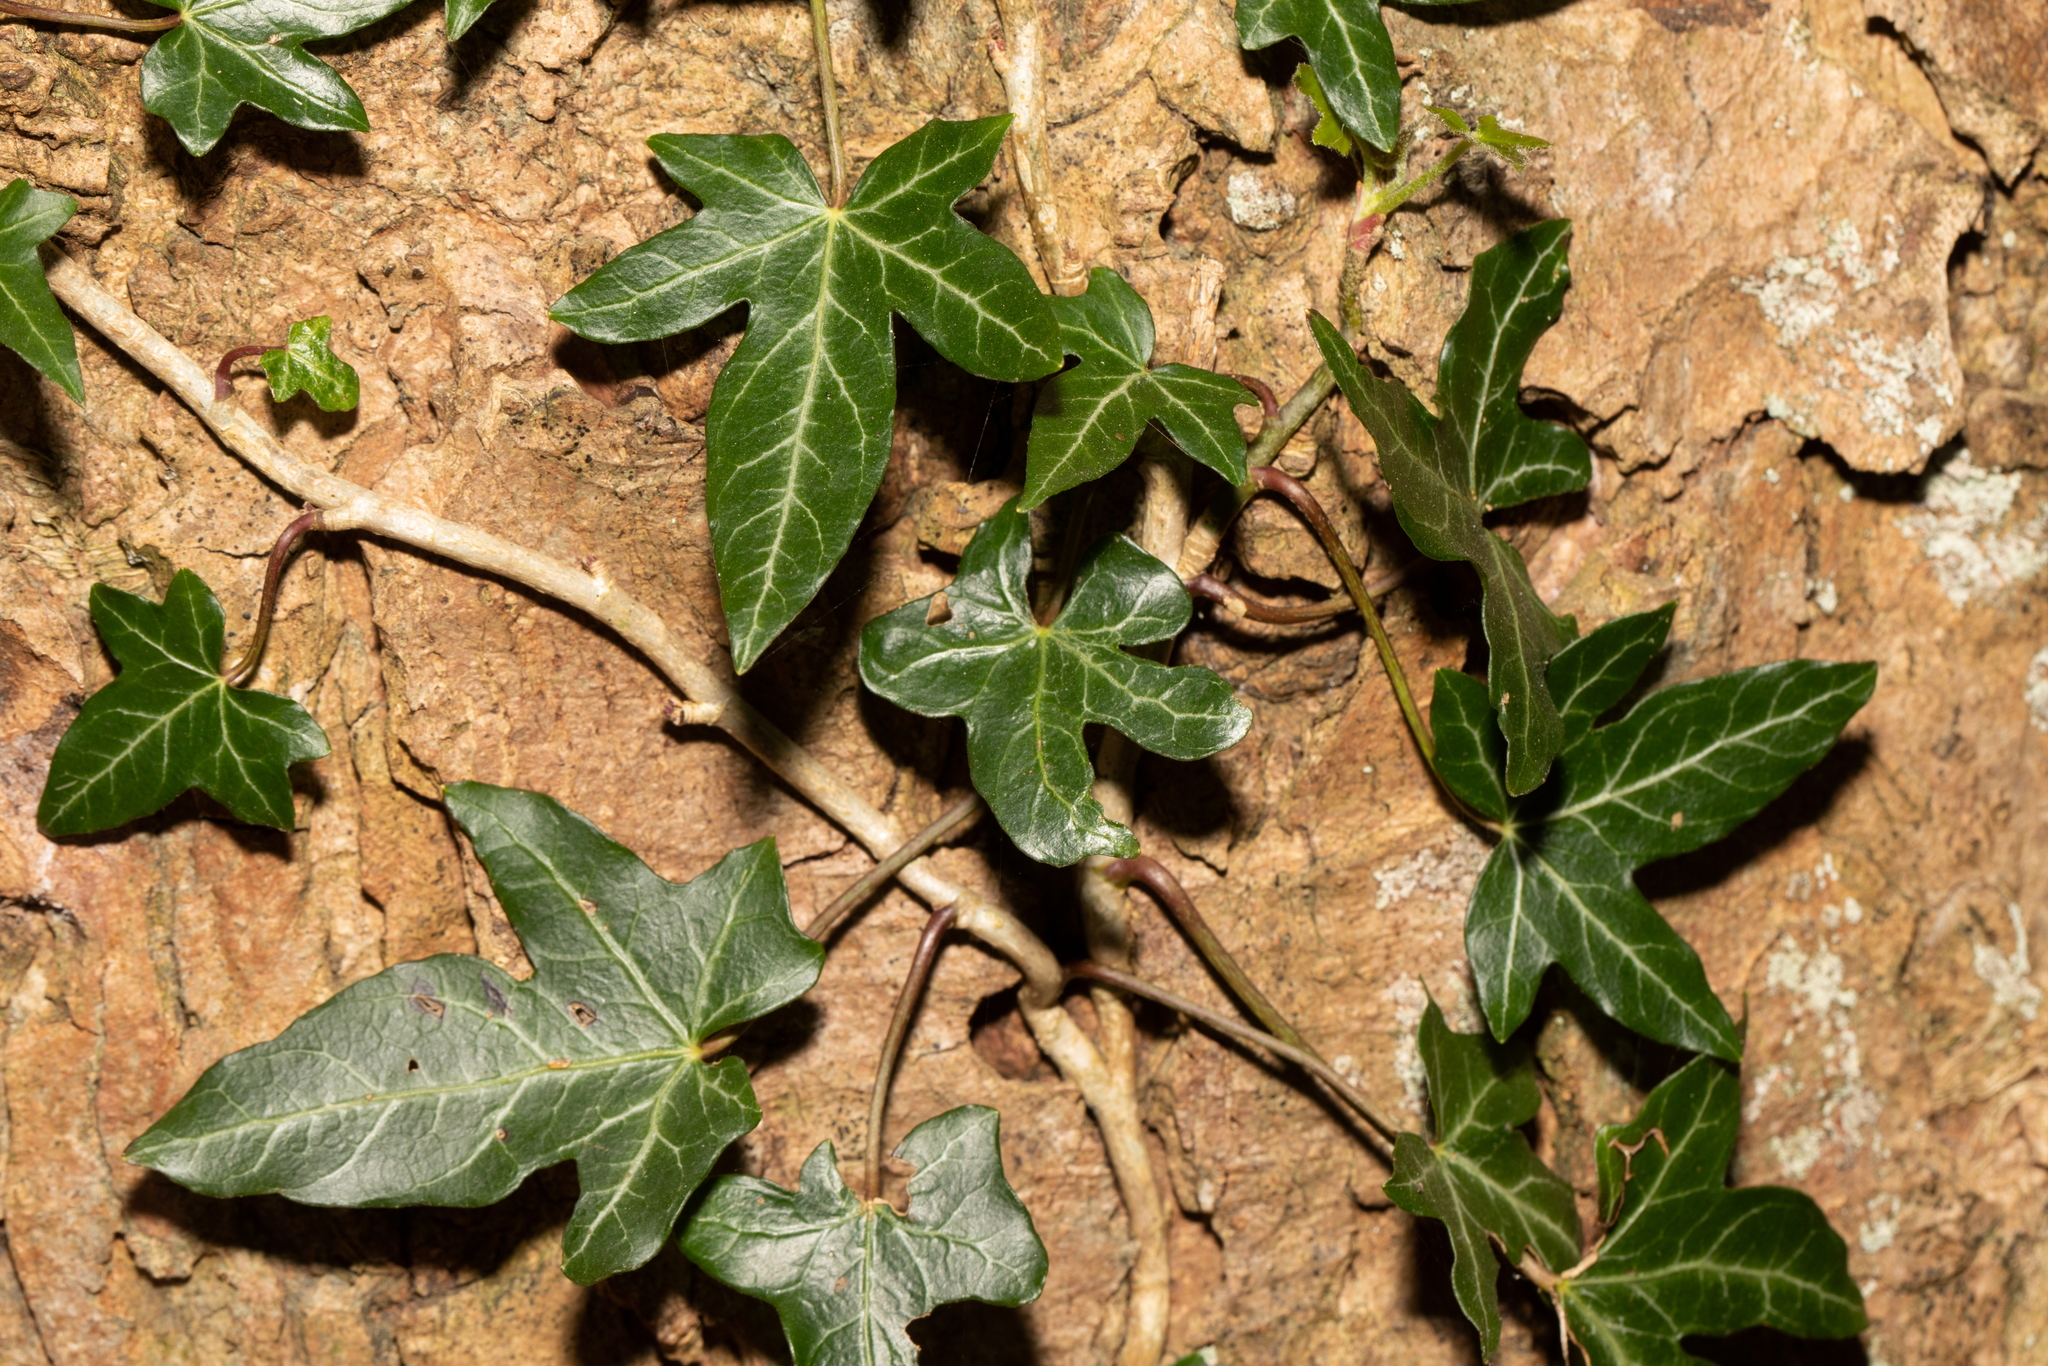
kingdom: Plantae
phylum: Tracheophyta
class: Magnoliopsida
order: Apiales
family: Araliaceae
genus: Hedera
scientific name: Hedera helix
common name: Ivy
